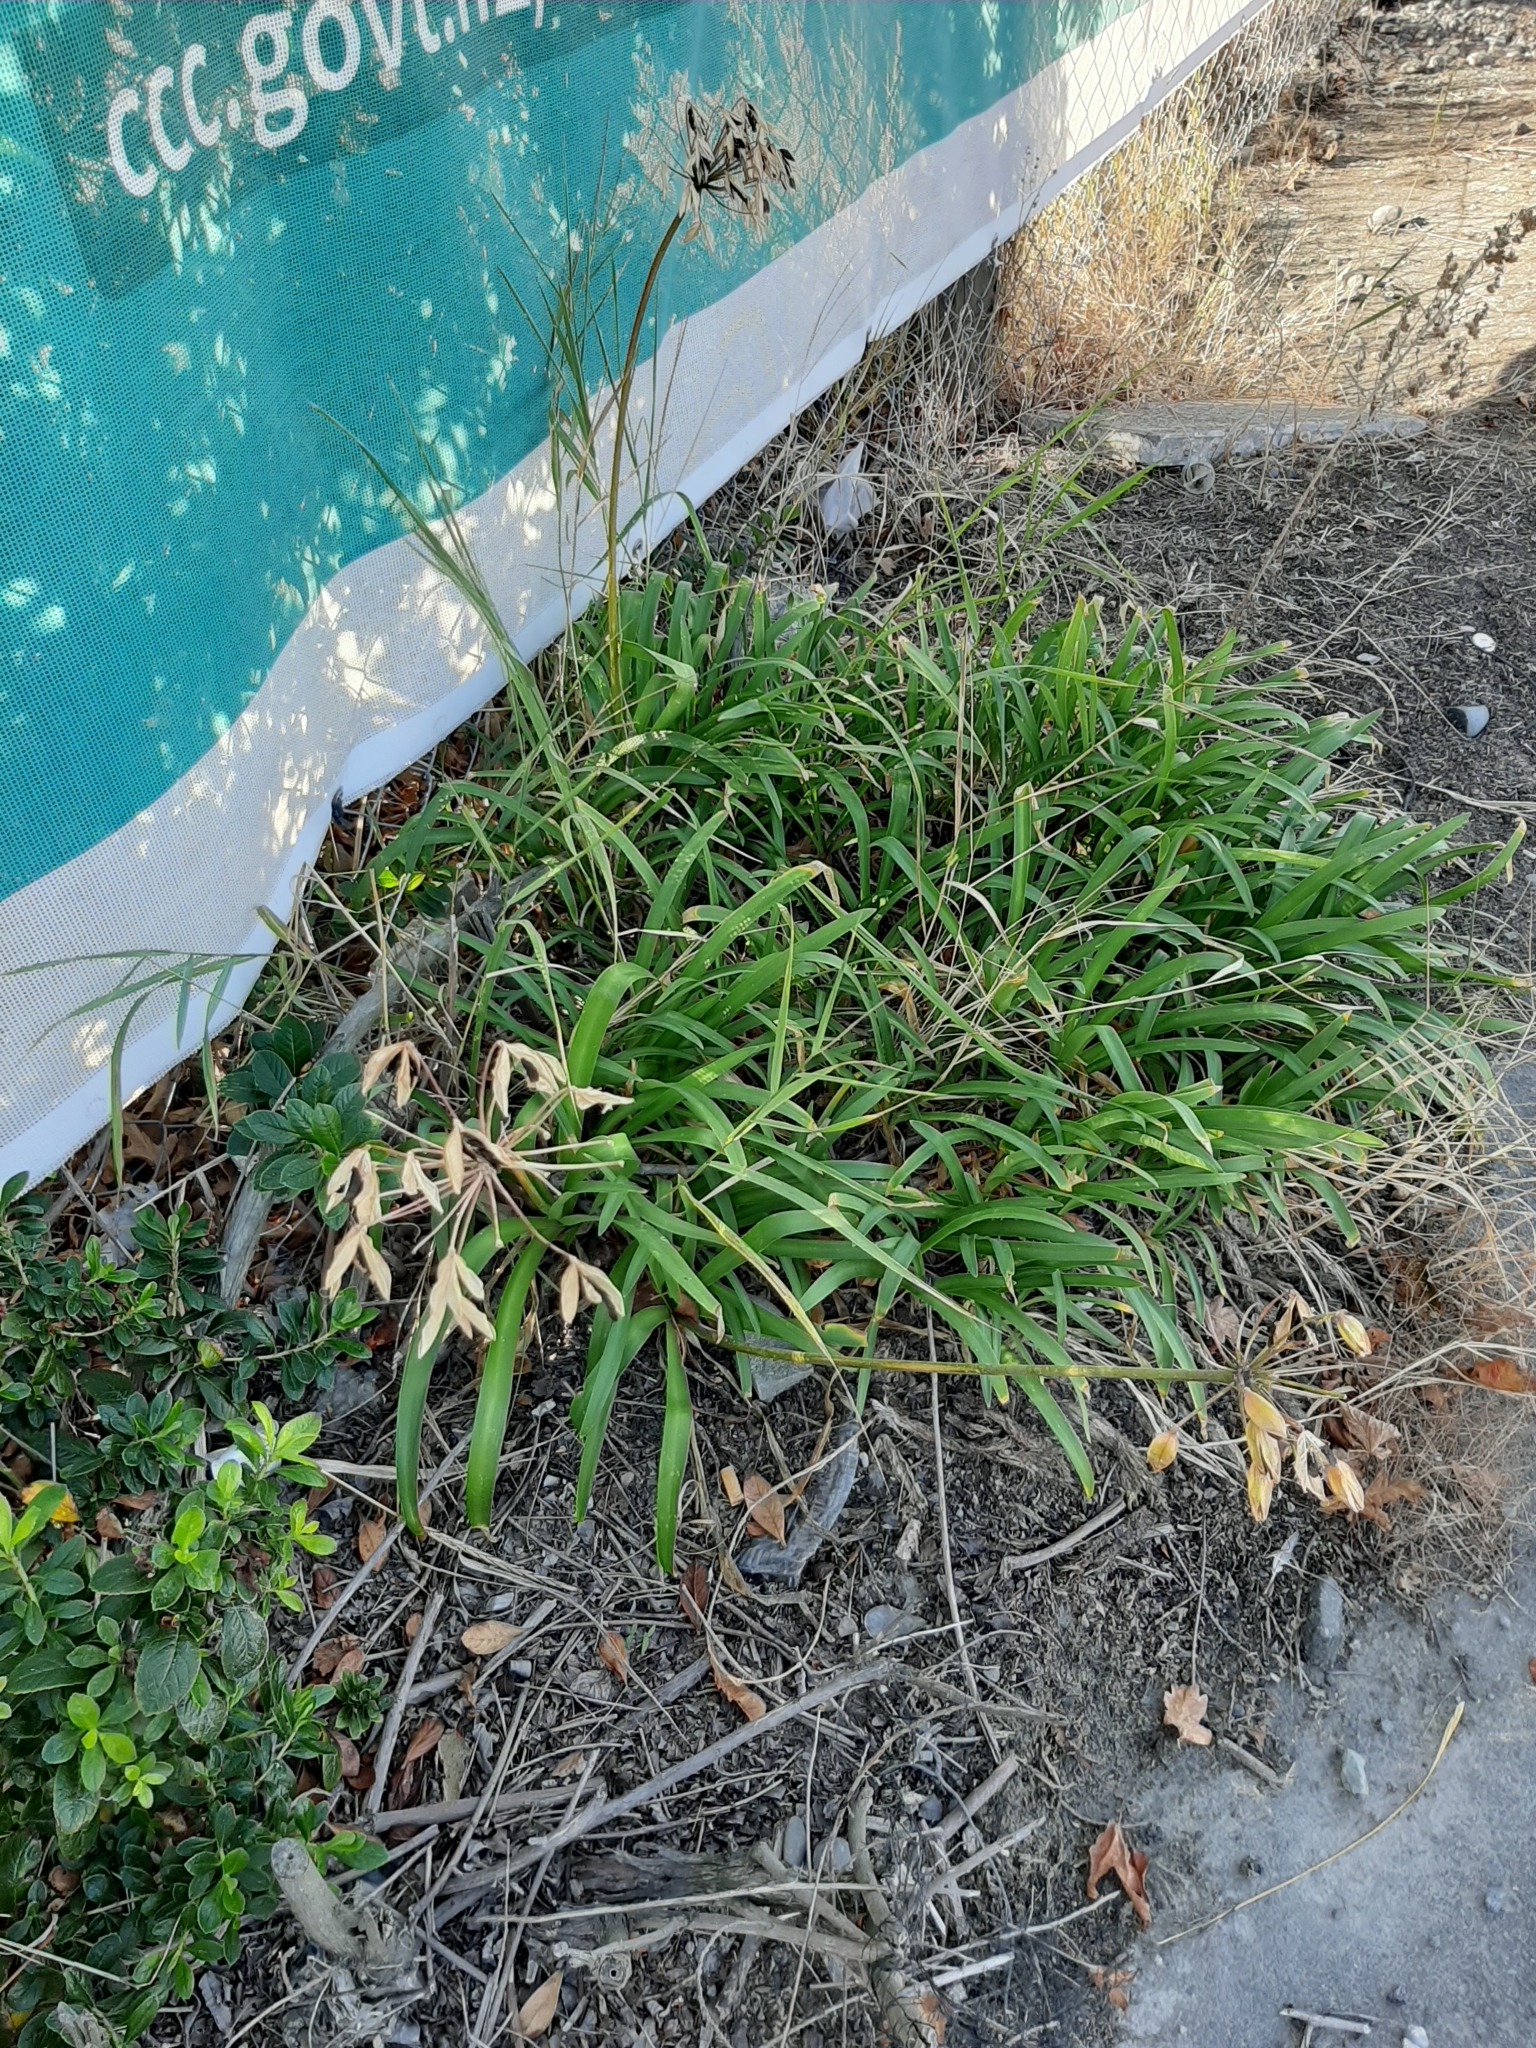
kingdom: Plantae
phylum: Tracheophyta
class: Liliopsida
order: Asparagales
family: Amaryllidaceae
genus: Agapanthus
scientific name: Agapanthus praecox
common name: African-lily
